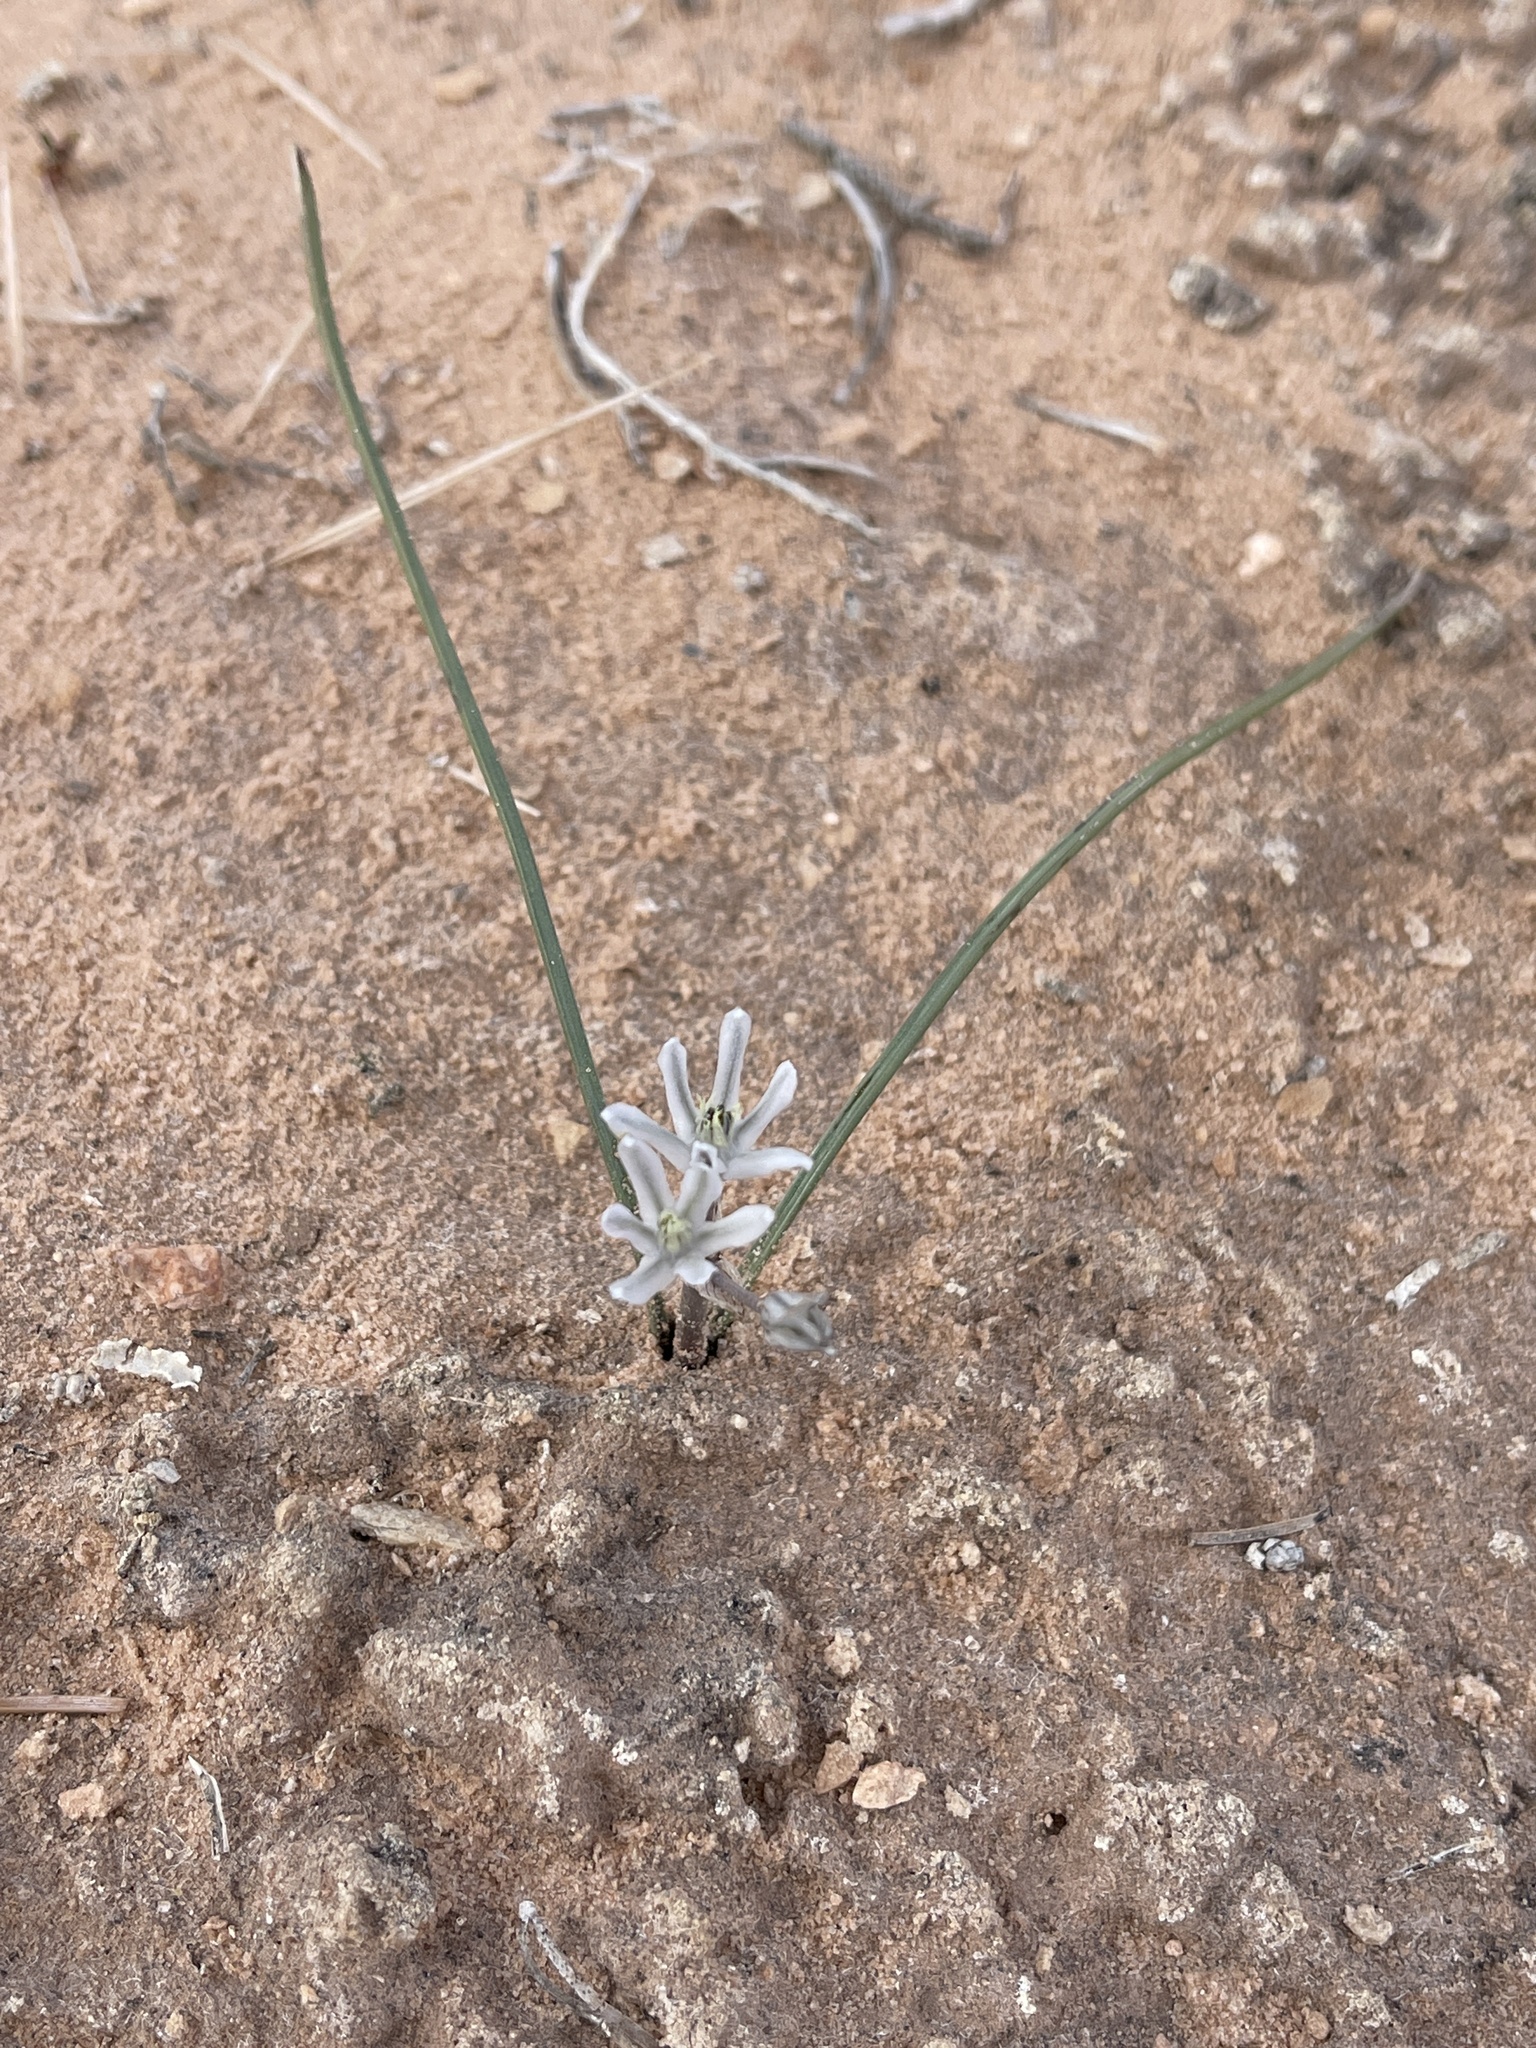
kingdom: Plantae
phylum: Tracheophyta
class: Liliopsida
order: Asparagales
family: Asparagaceae
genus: Androstephium
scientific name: Androstephium breviflorum
